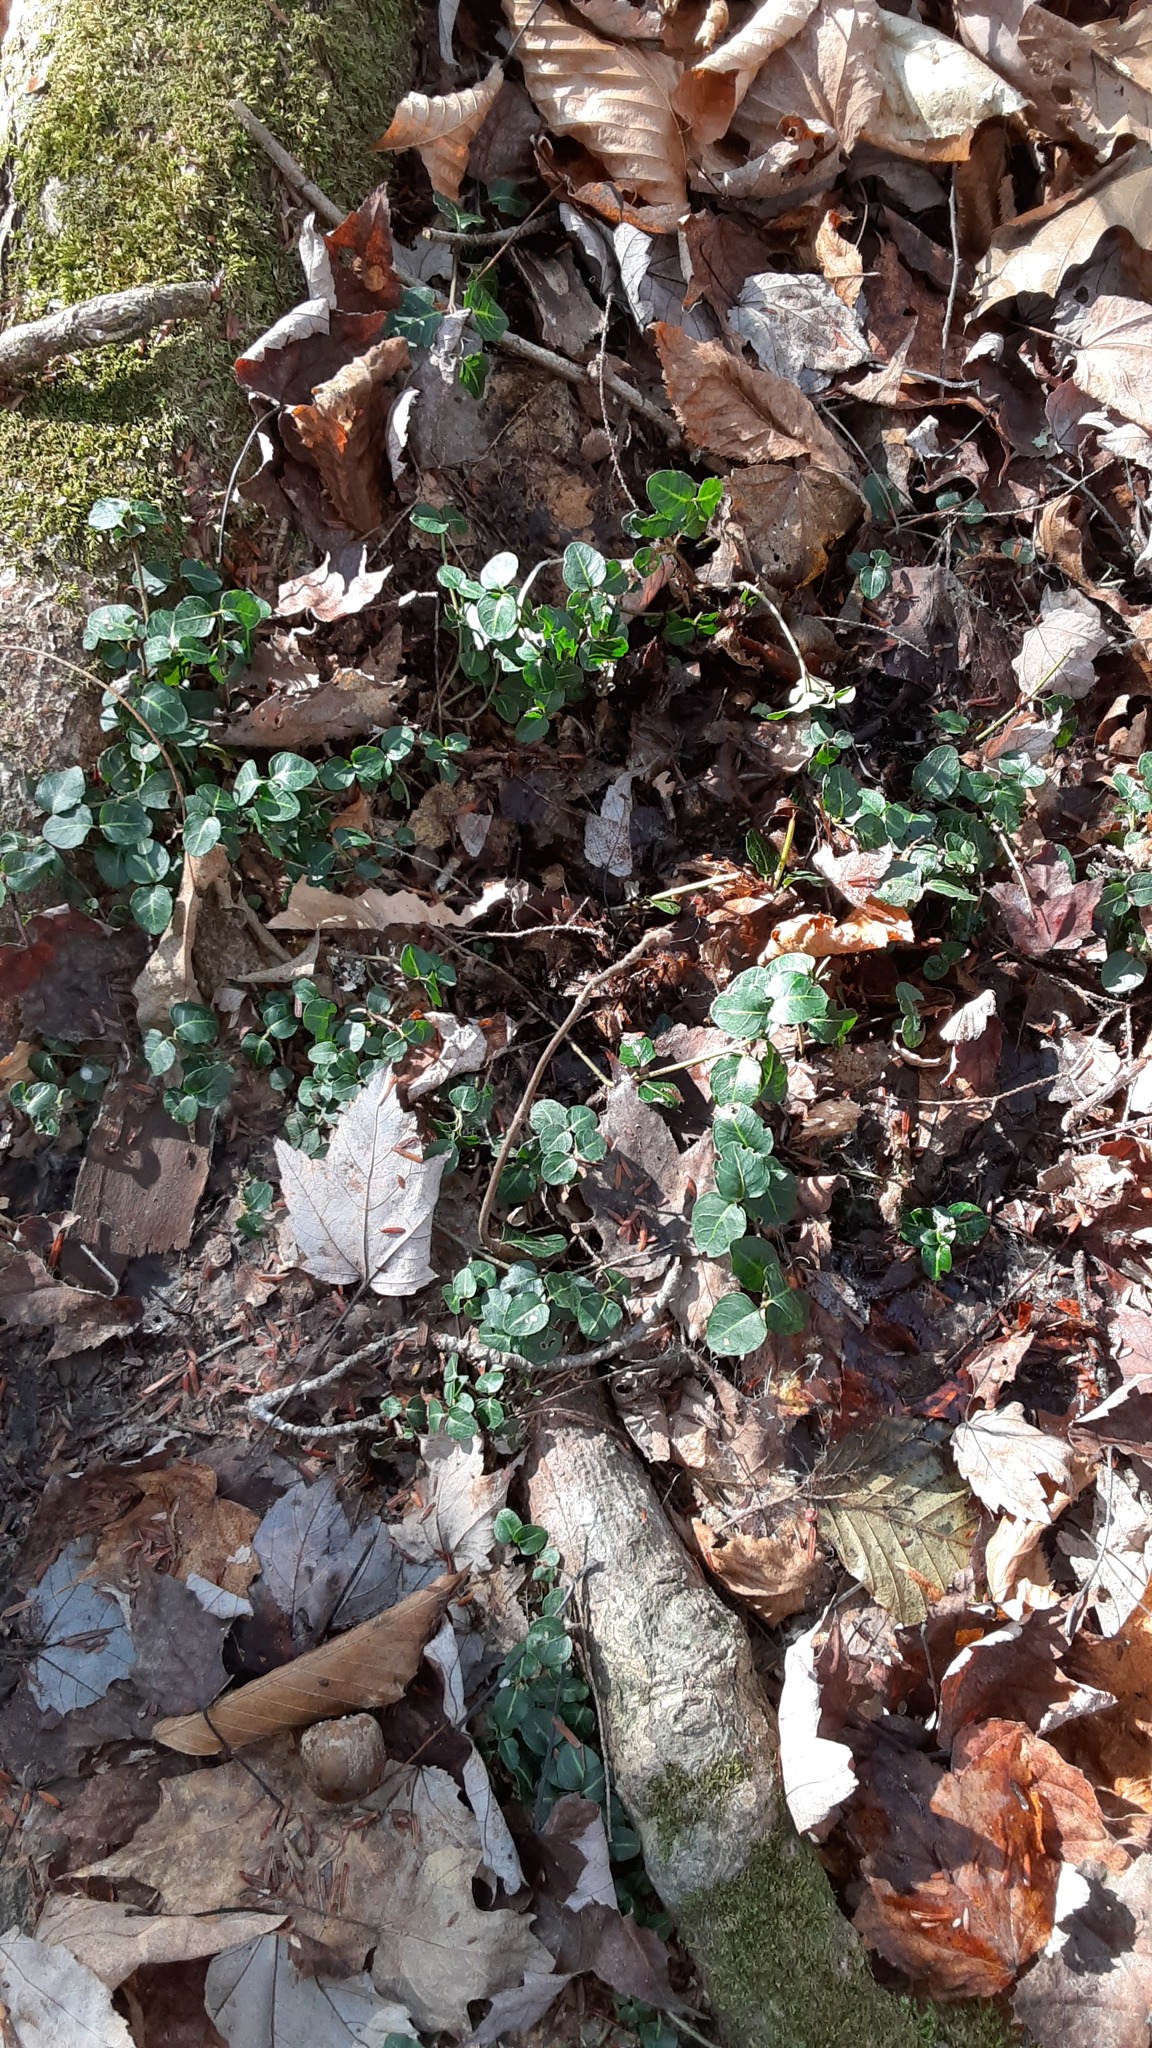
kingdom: Plantae
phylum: Tracheophyta
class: Magnoliopsida
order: Gentianales
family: Rubiaceae
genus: Mitchella
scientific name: Mitchella repens
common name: Partridge-berry
